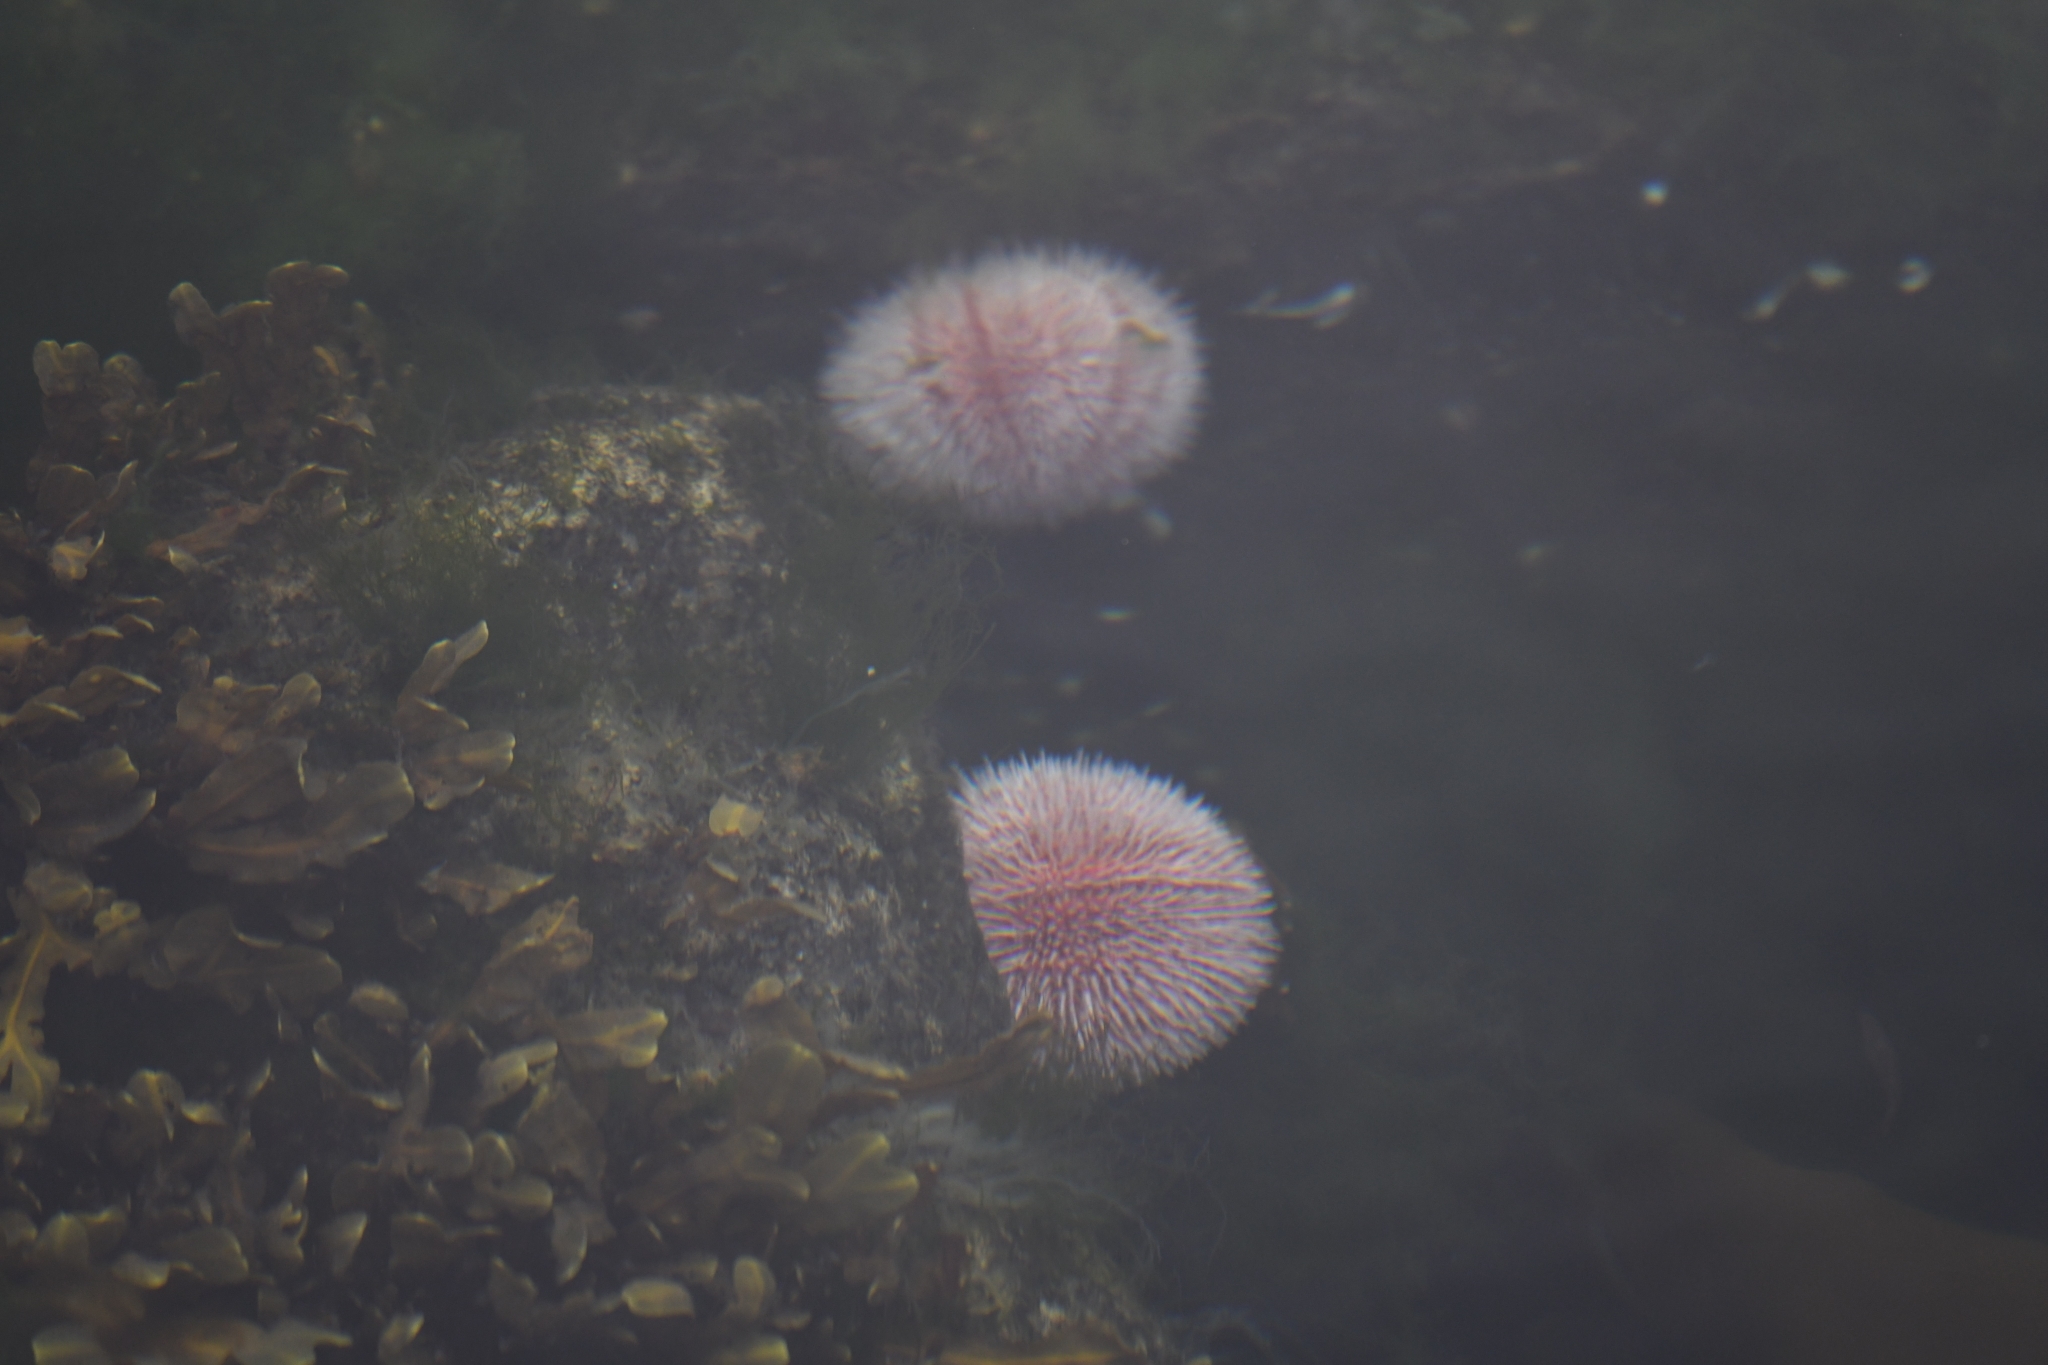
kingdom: Animalia
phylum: Echinodermata
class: Echinoidea
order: Camarodonta
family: Echinidae
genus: Echinus
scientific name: Echinus esculentus
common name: Edible sea urchin
